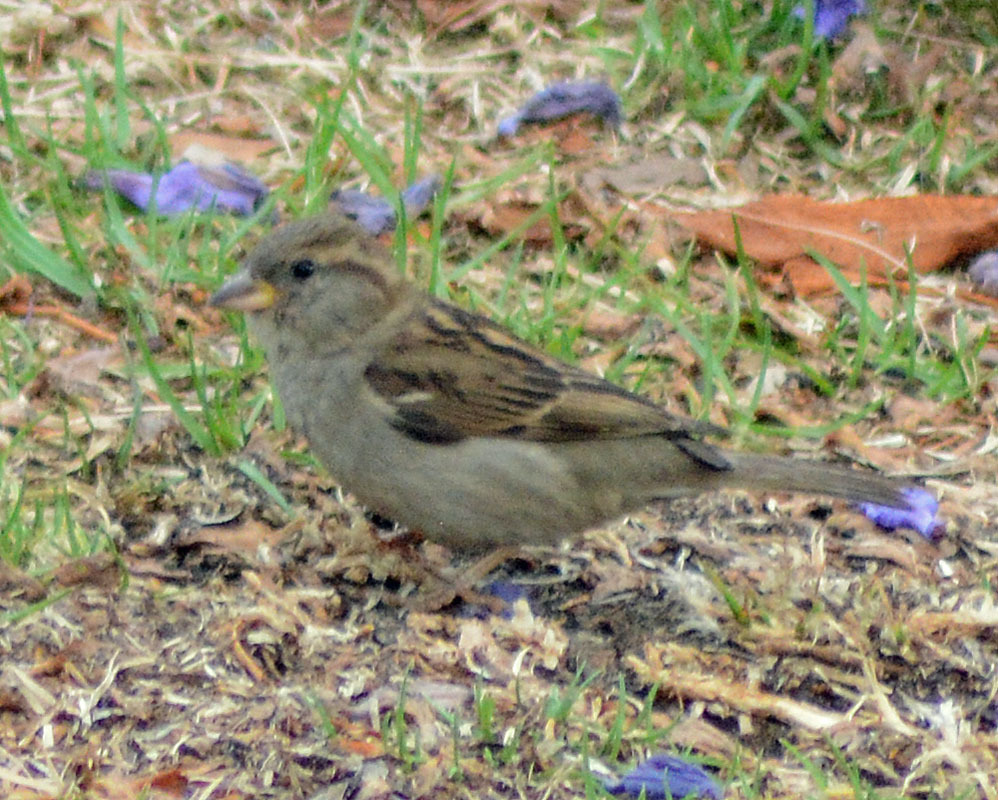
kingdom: Animalia
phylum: Chordata
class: Aves
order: Passeriformes
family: Passeridae
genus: Passer
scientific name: Passer domesticus
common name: House sparrow
